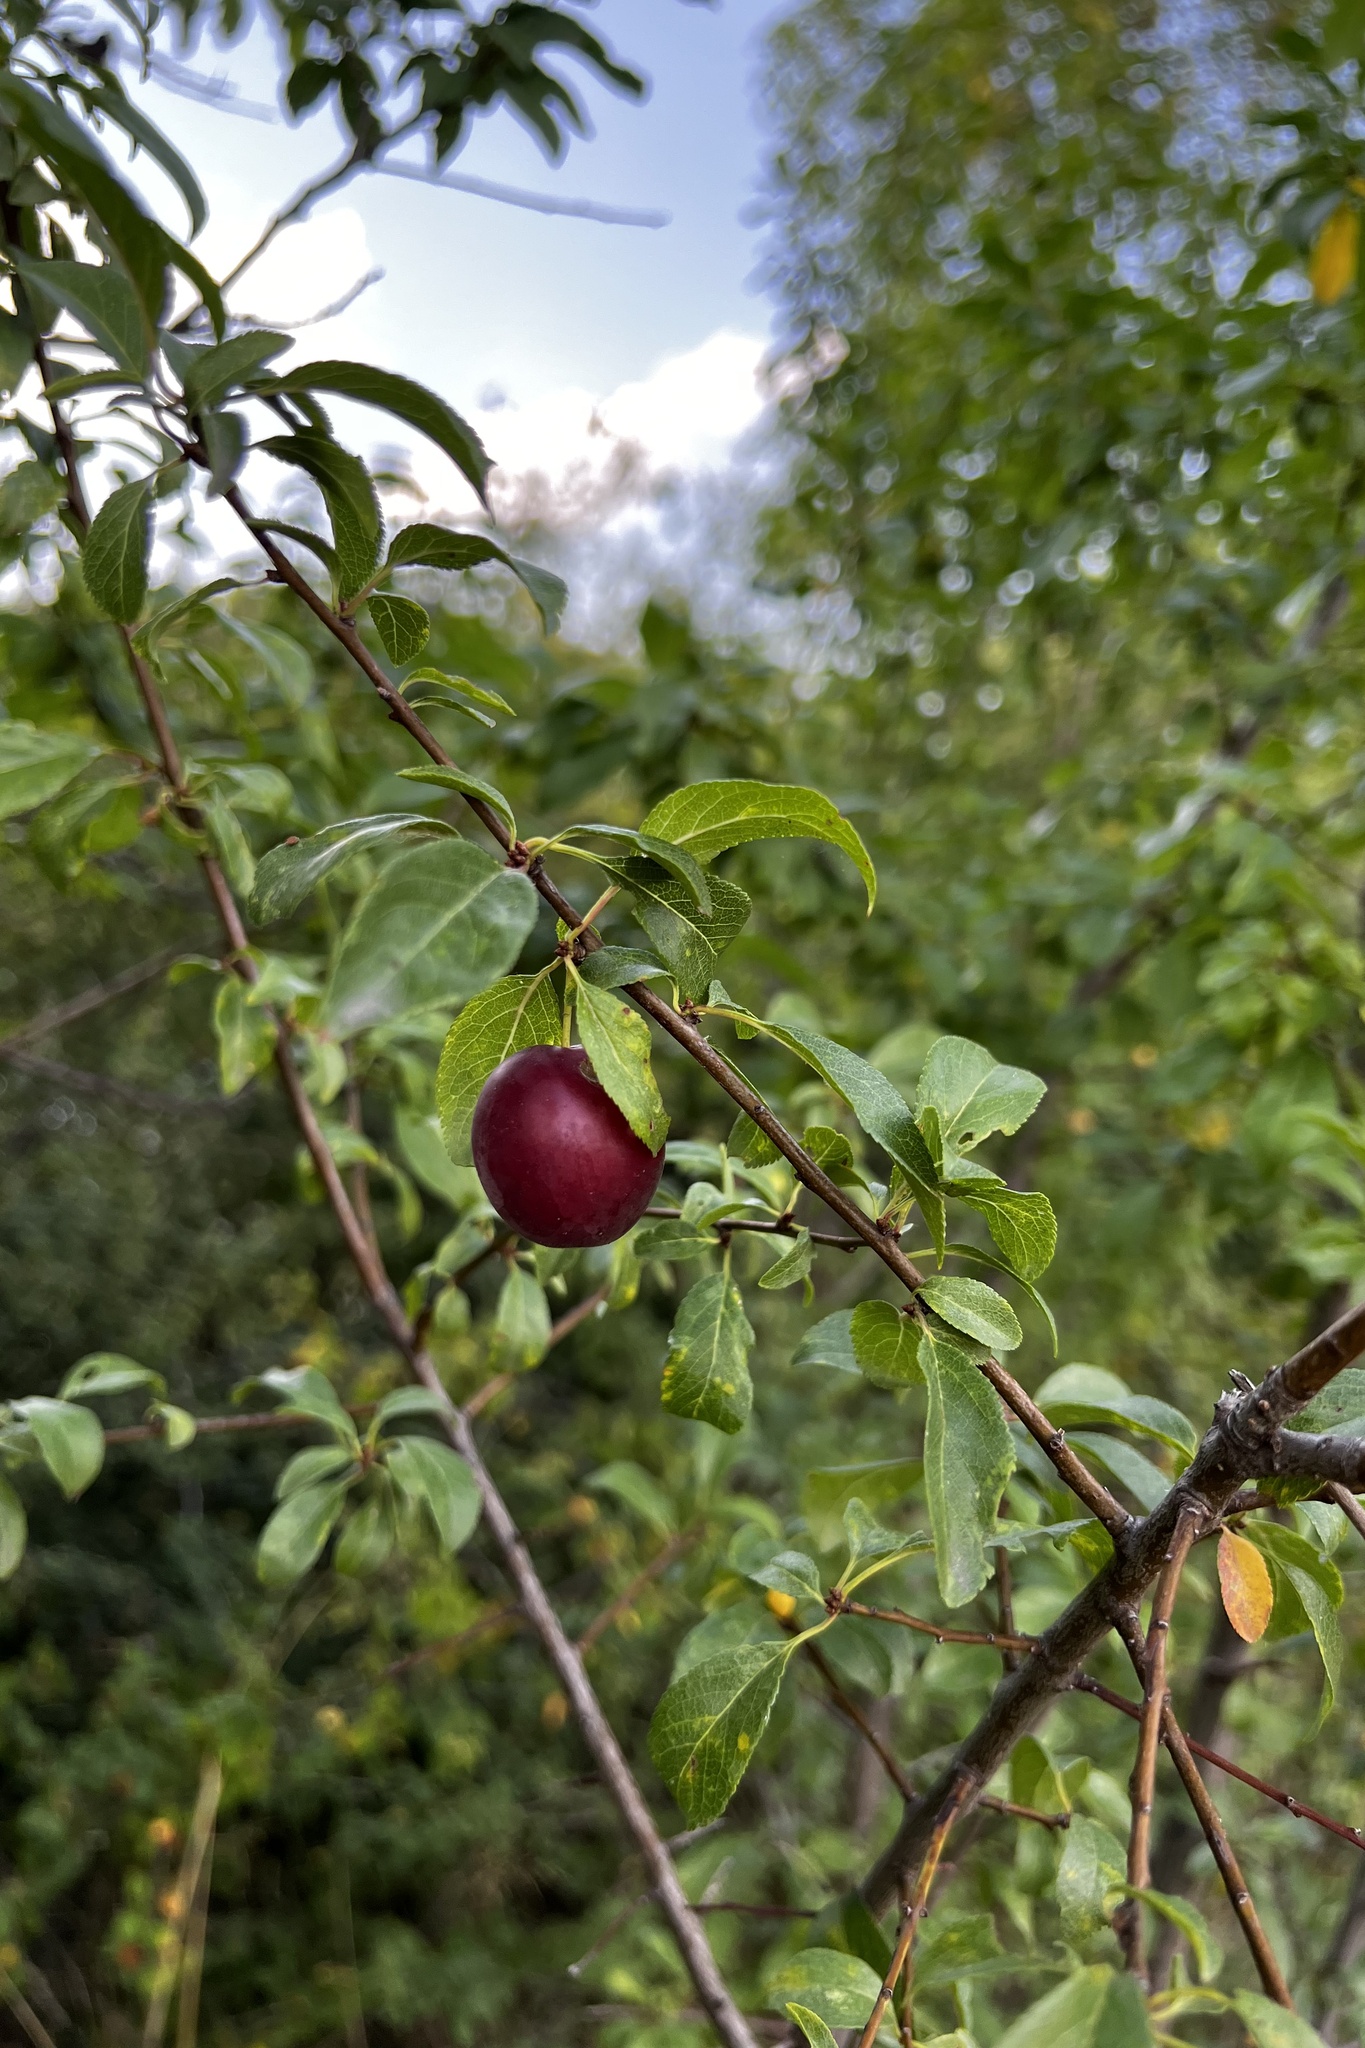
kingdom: Plantae
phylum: Tracheophyta
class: Magnoliopsida
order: Rosales
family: Rosaceae
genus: Prunus
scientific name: Prunus cerasifera
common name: Cherry plum
